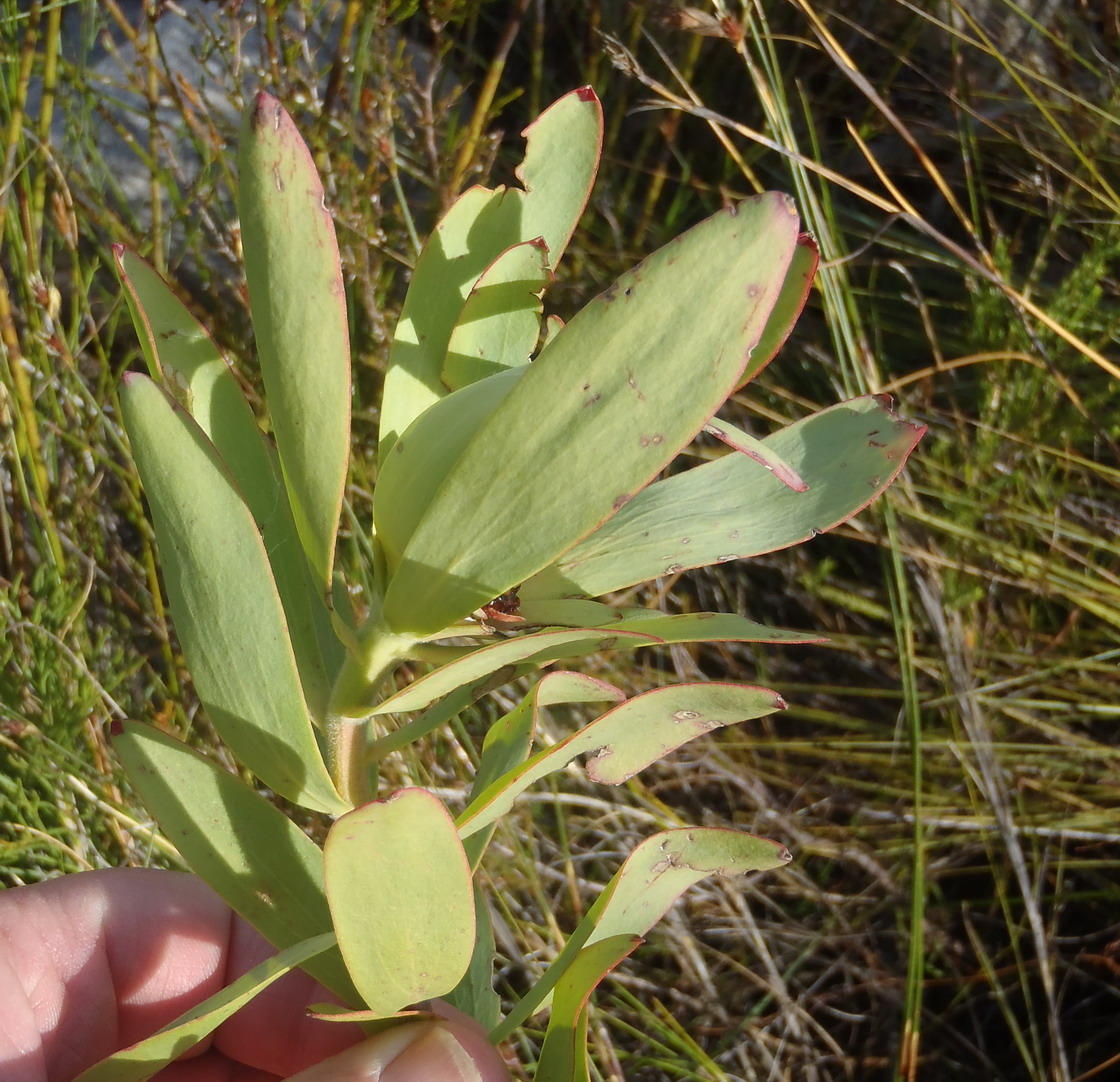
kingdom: Plantae
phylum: Tracheophyta
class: Magnoliopsida
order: Proteales
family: Proteaceae
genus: Leucadendron
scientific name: Leucadendron tinctum
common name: Spicy conebush
